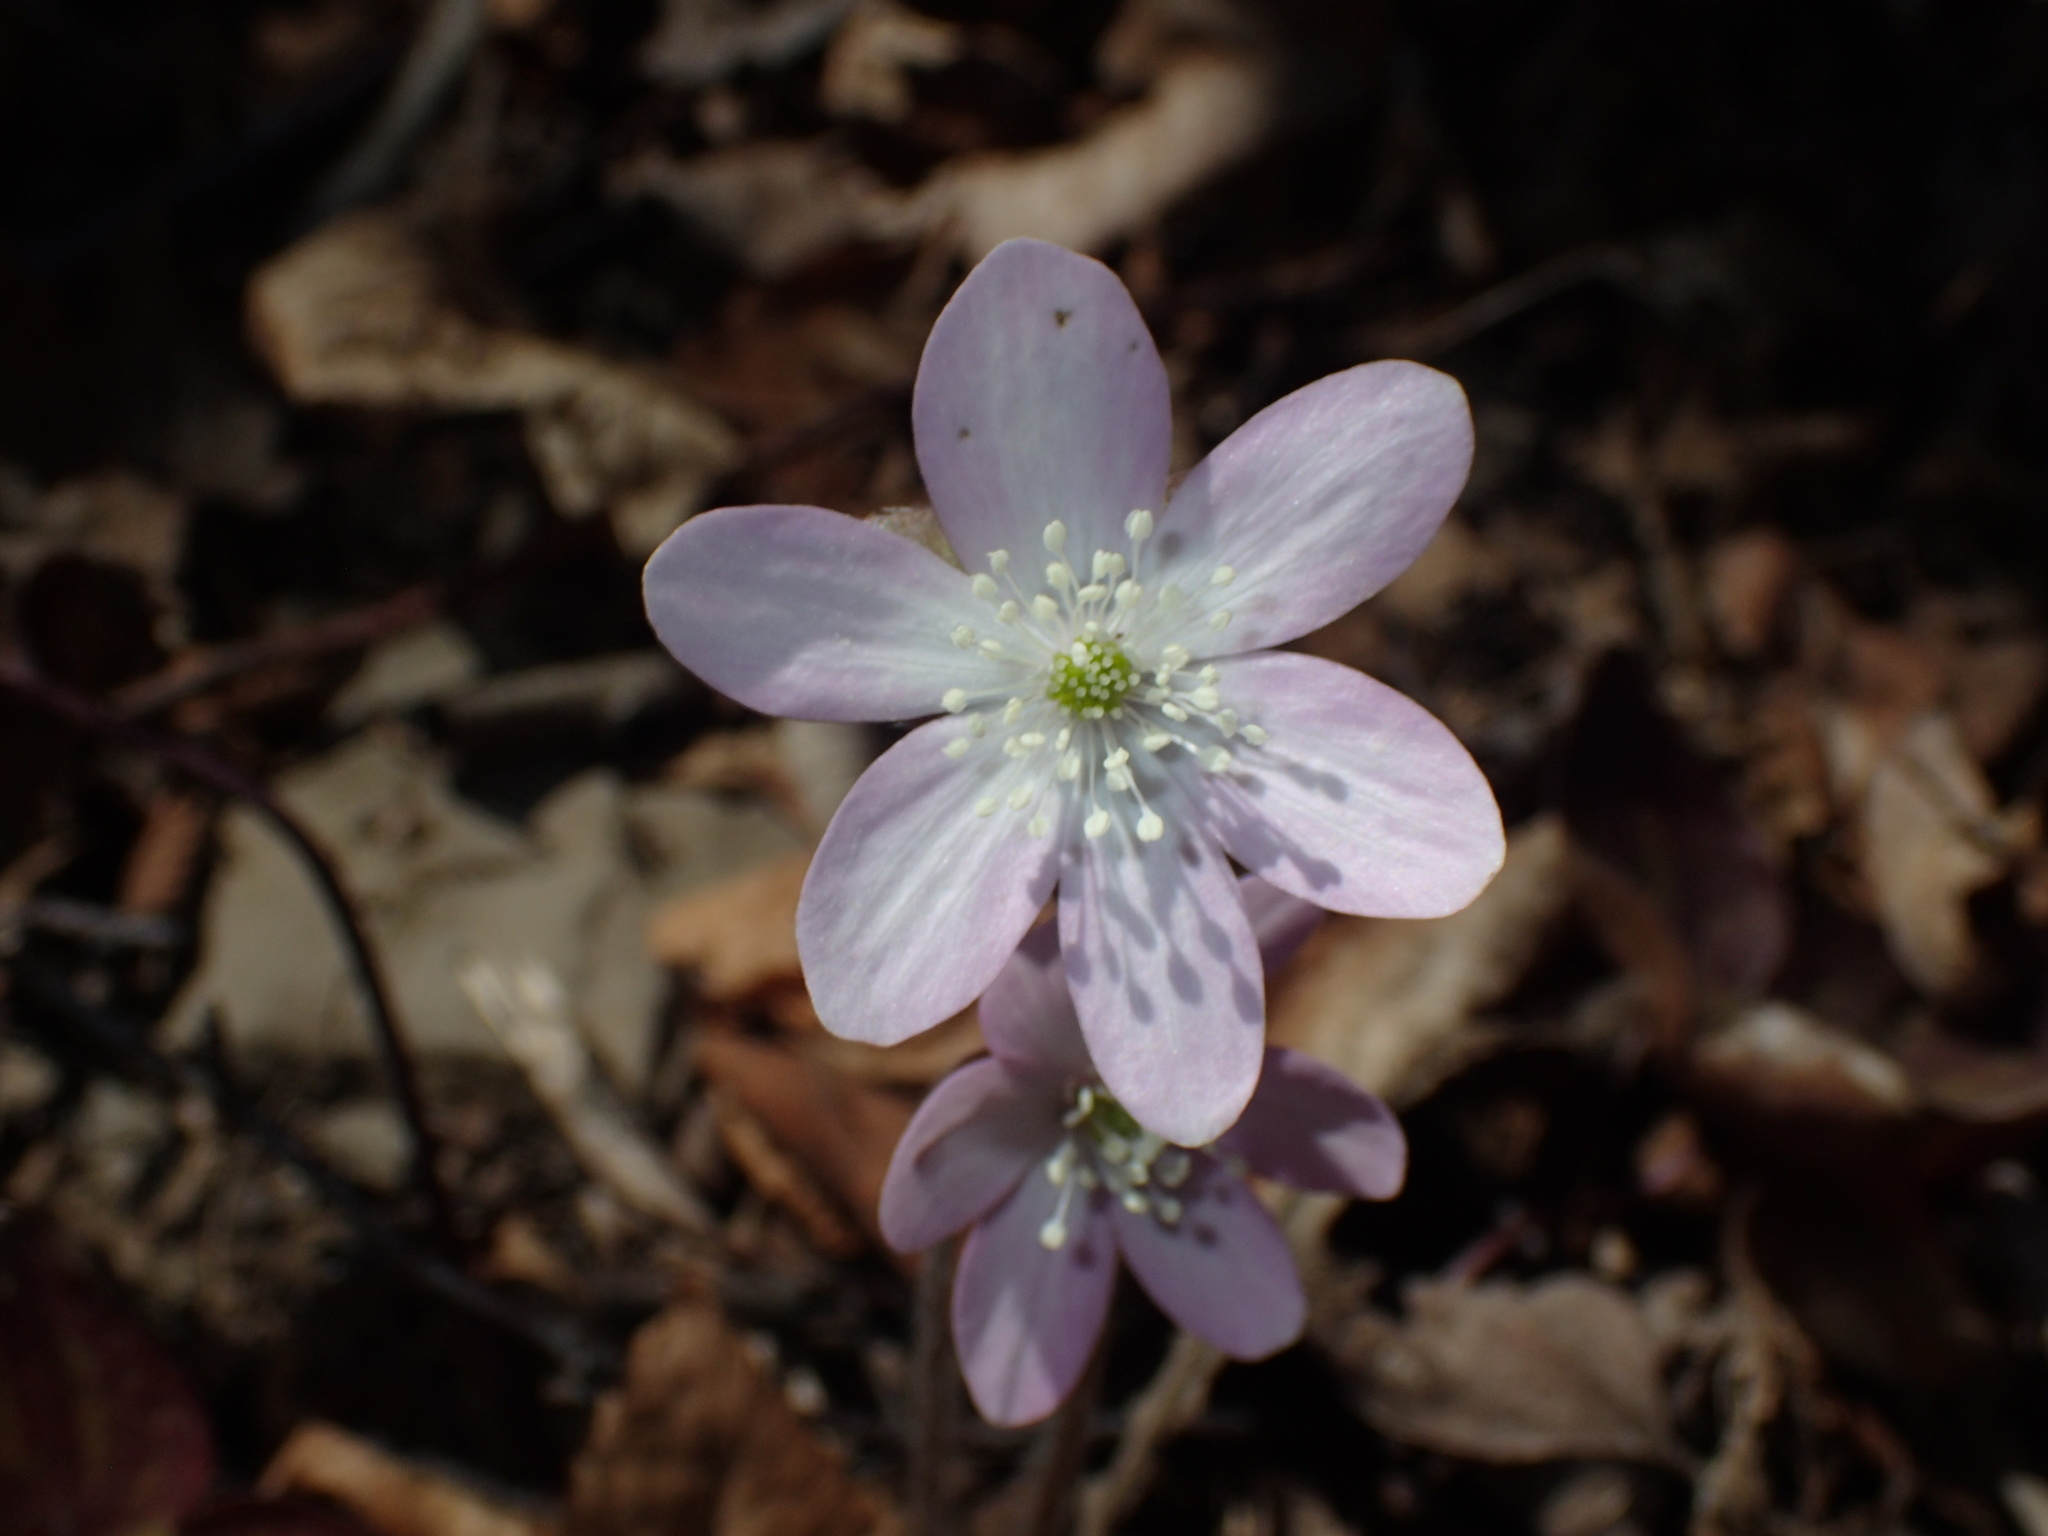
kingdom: Plantae
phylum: Tracheophyta
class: Magnoliopsida
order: Ranunculales
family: Ranunculaceae
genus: Hepatica
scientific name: Hepatica acutiloba
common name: Sharp-lobed hepatica
